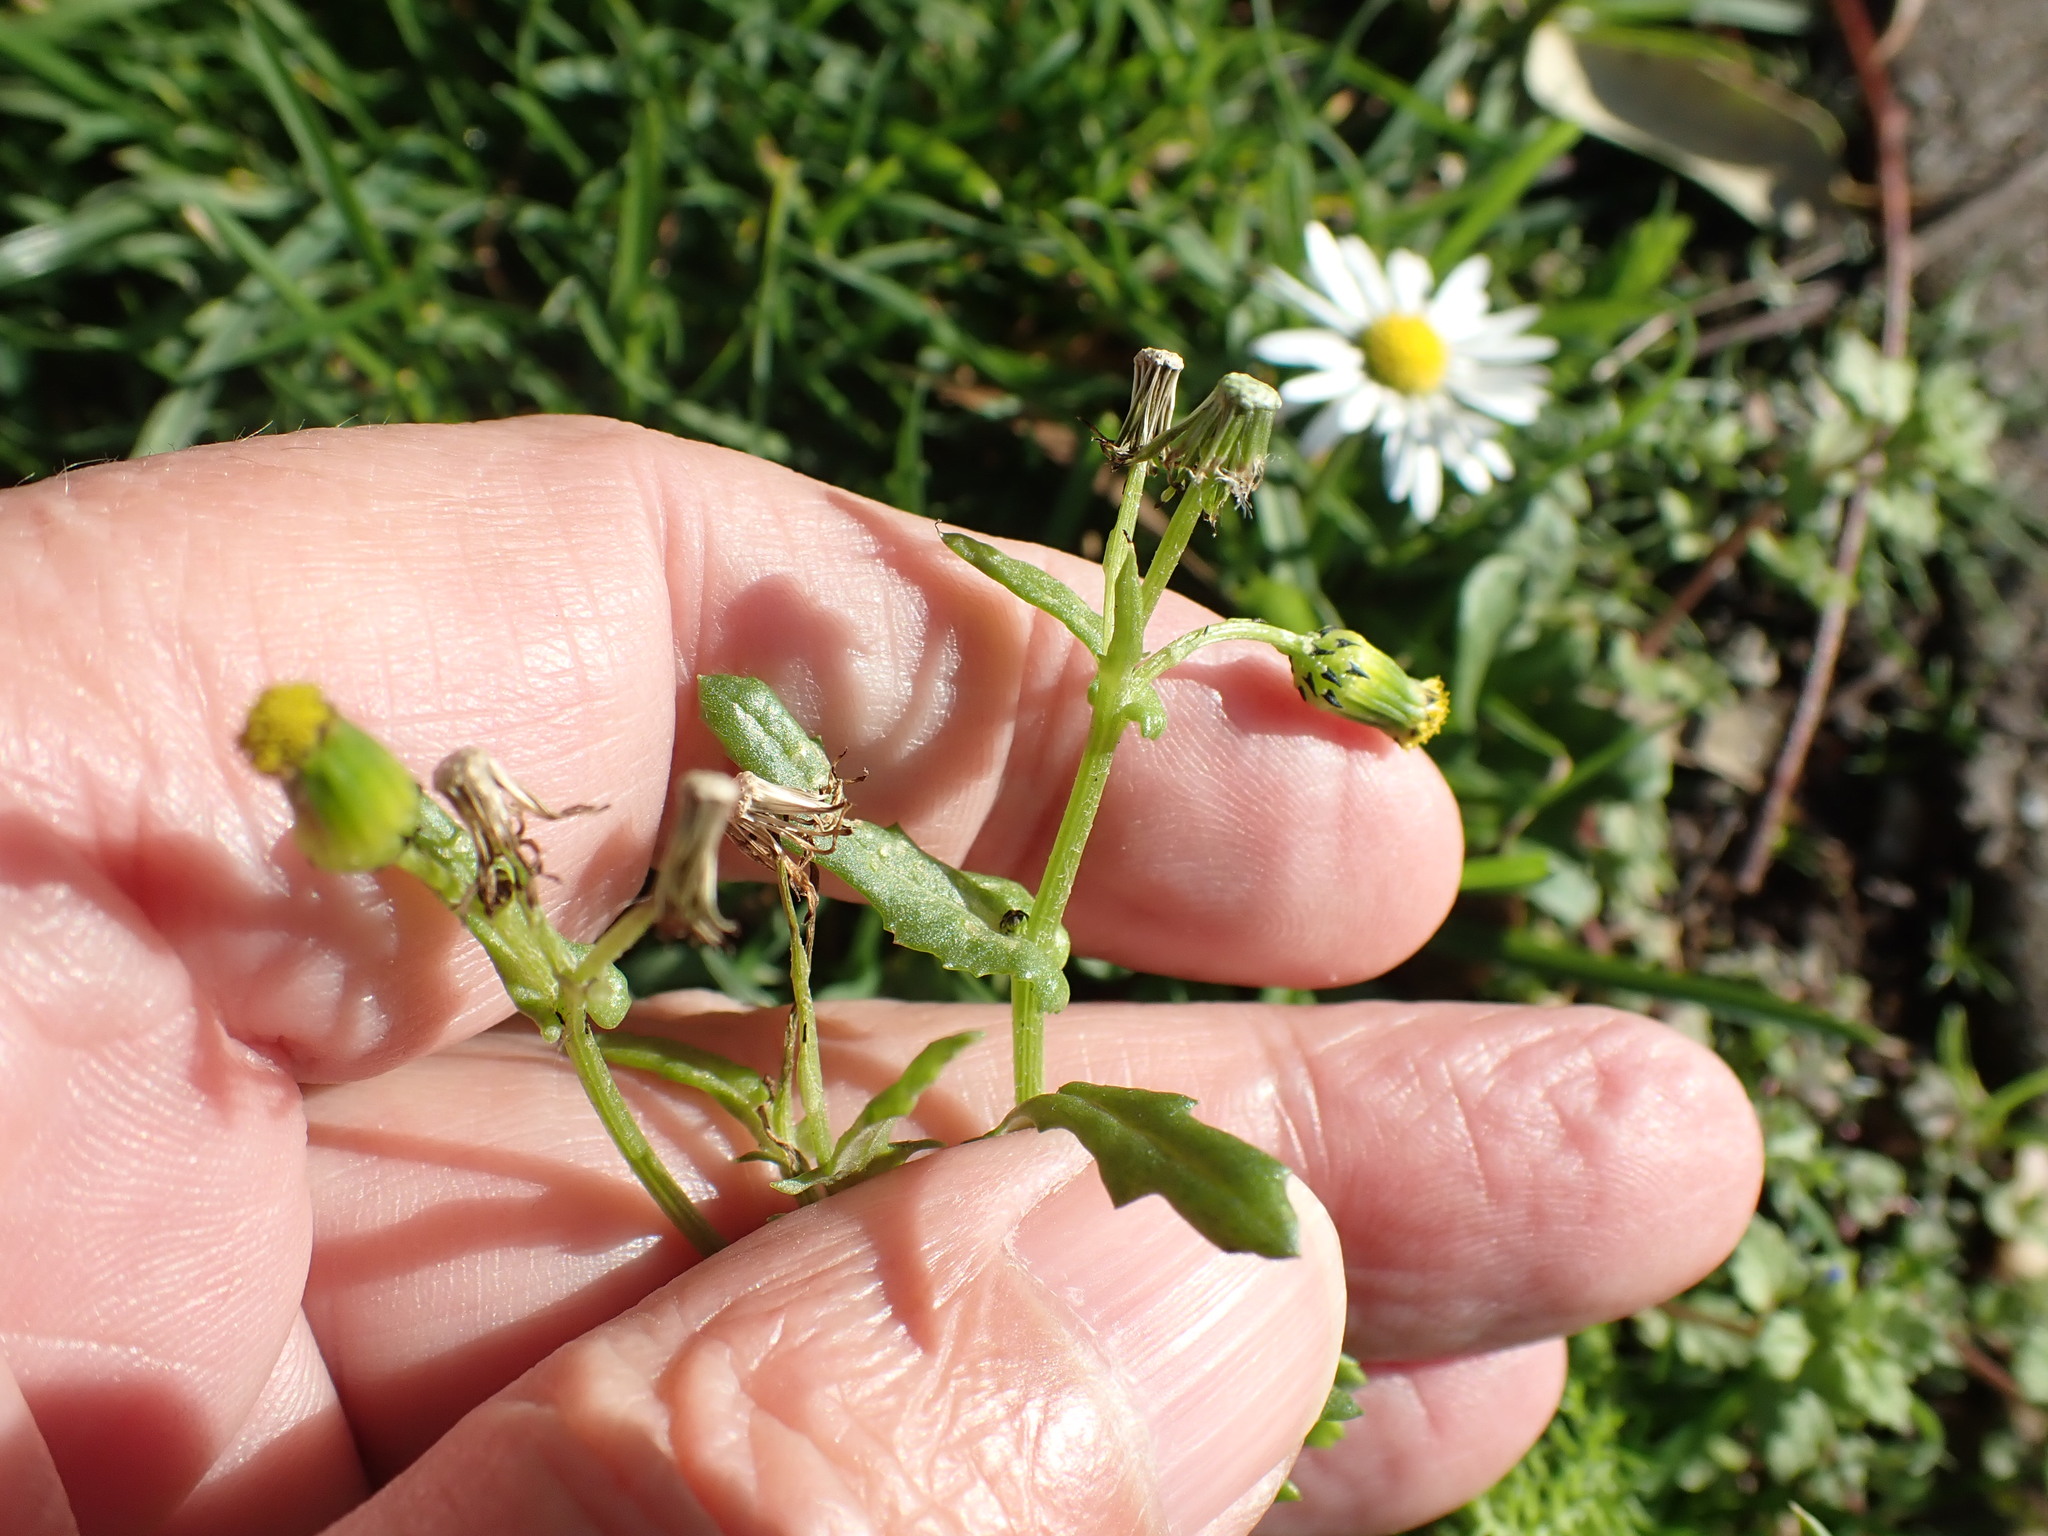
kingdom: Plantae
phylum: Tracheophyta
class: Magnoliopsida
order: Asterales
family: Asteraceae
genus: Senecio
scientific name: Senecio vulgaris
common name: Old-man-in-the-spring
